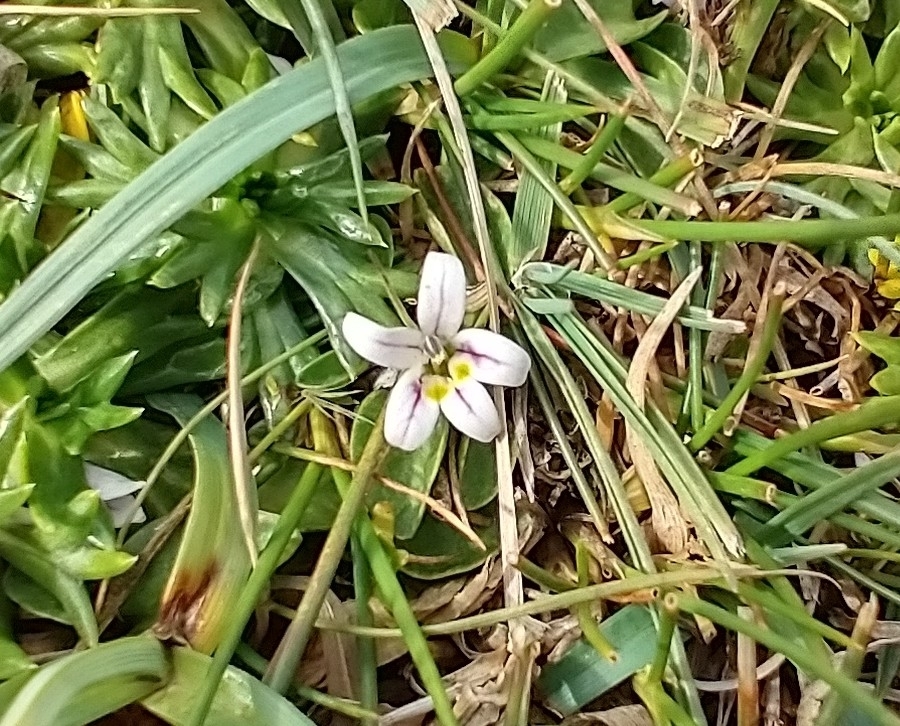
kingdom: Plantae
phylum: Tracheophyta
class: Magnoliopsida
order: Asterales
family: Campanulaceae
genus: Lobelia
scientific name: Lobelia oligophylla
